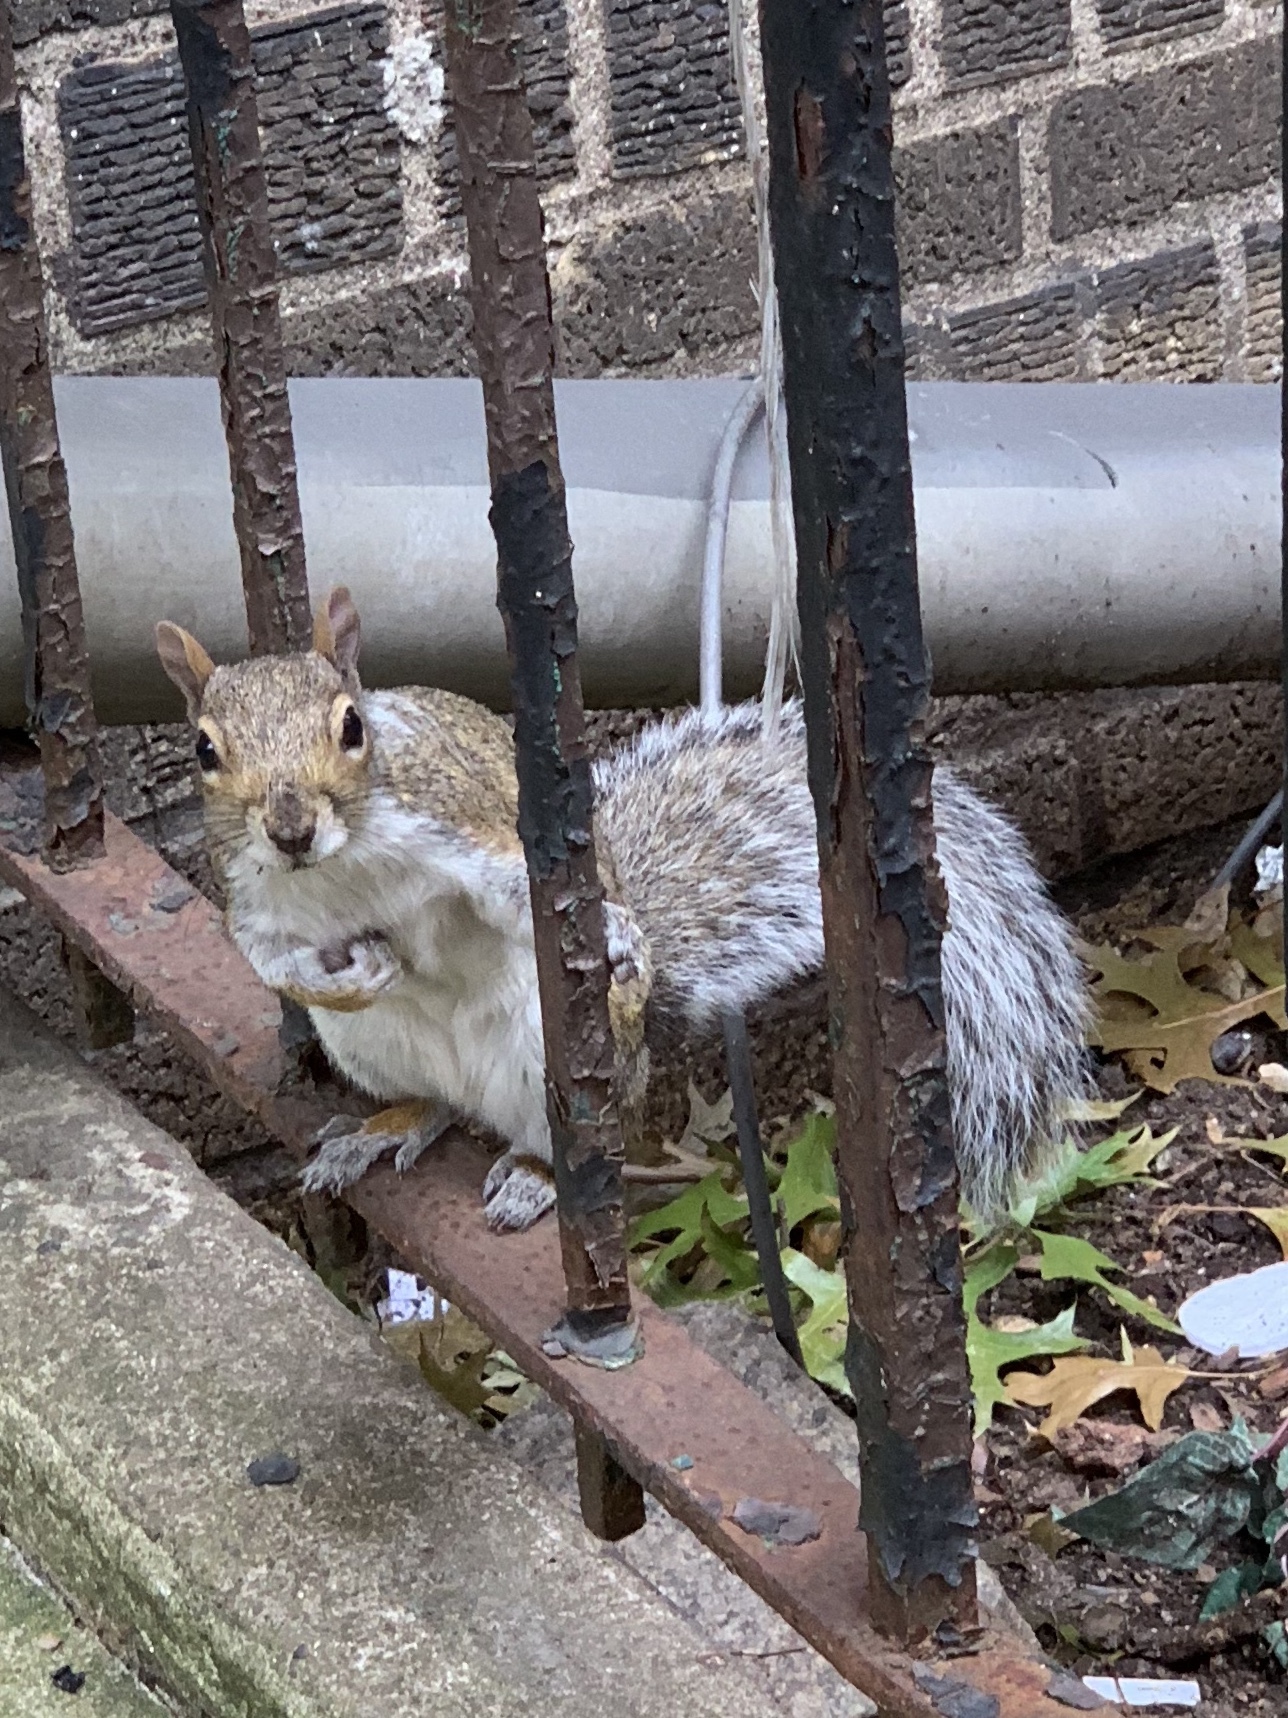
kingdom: Animalia
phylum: Chordata
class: Mammalia
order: Rodentia
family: Sciuridae
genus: Sciurus
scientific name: Sciurus carolinensis
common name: Eastern gray squirrel
